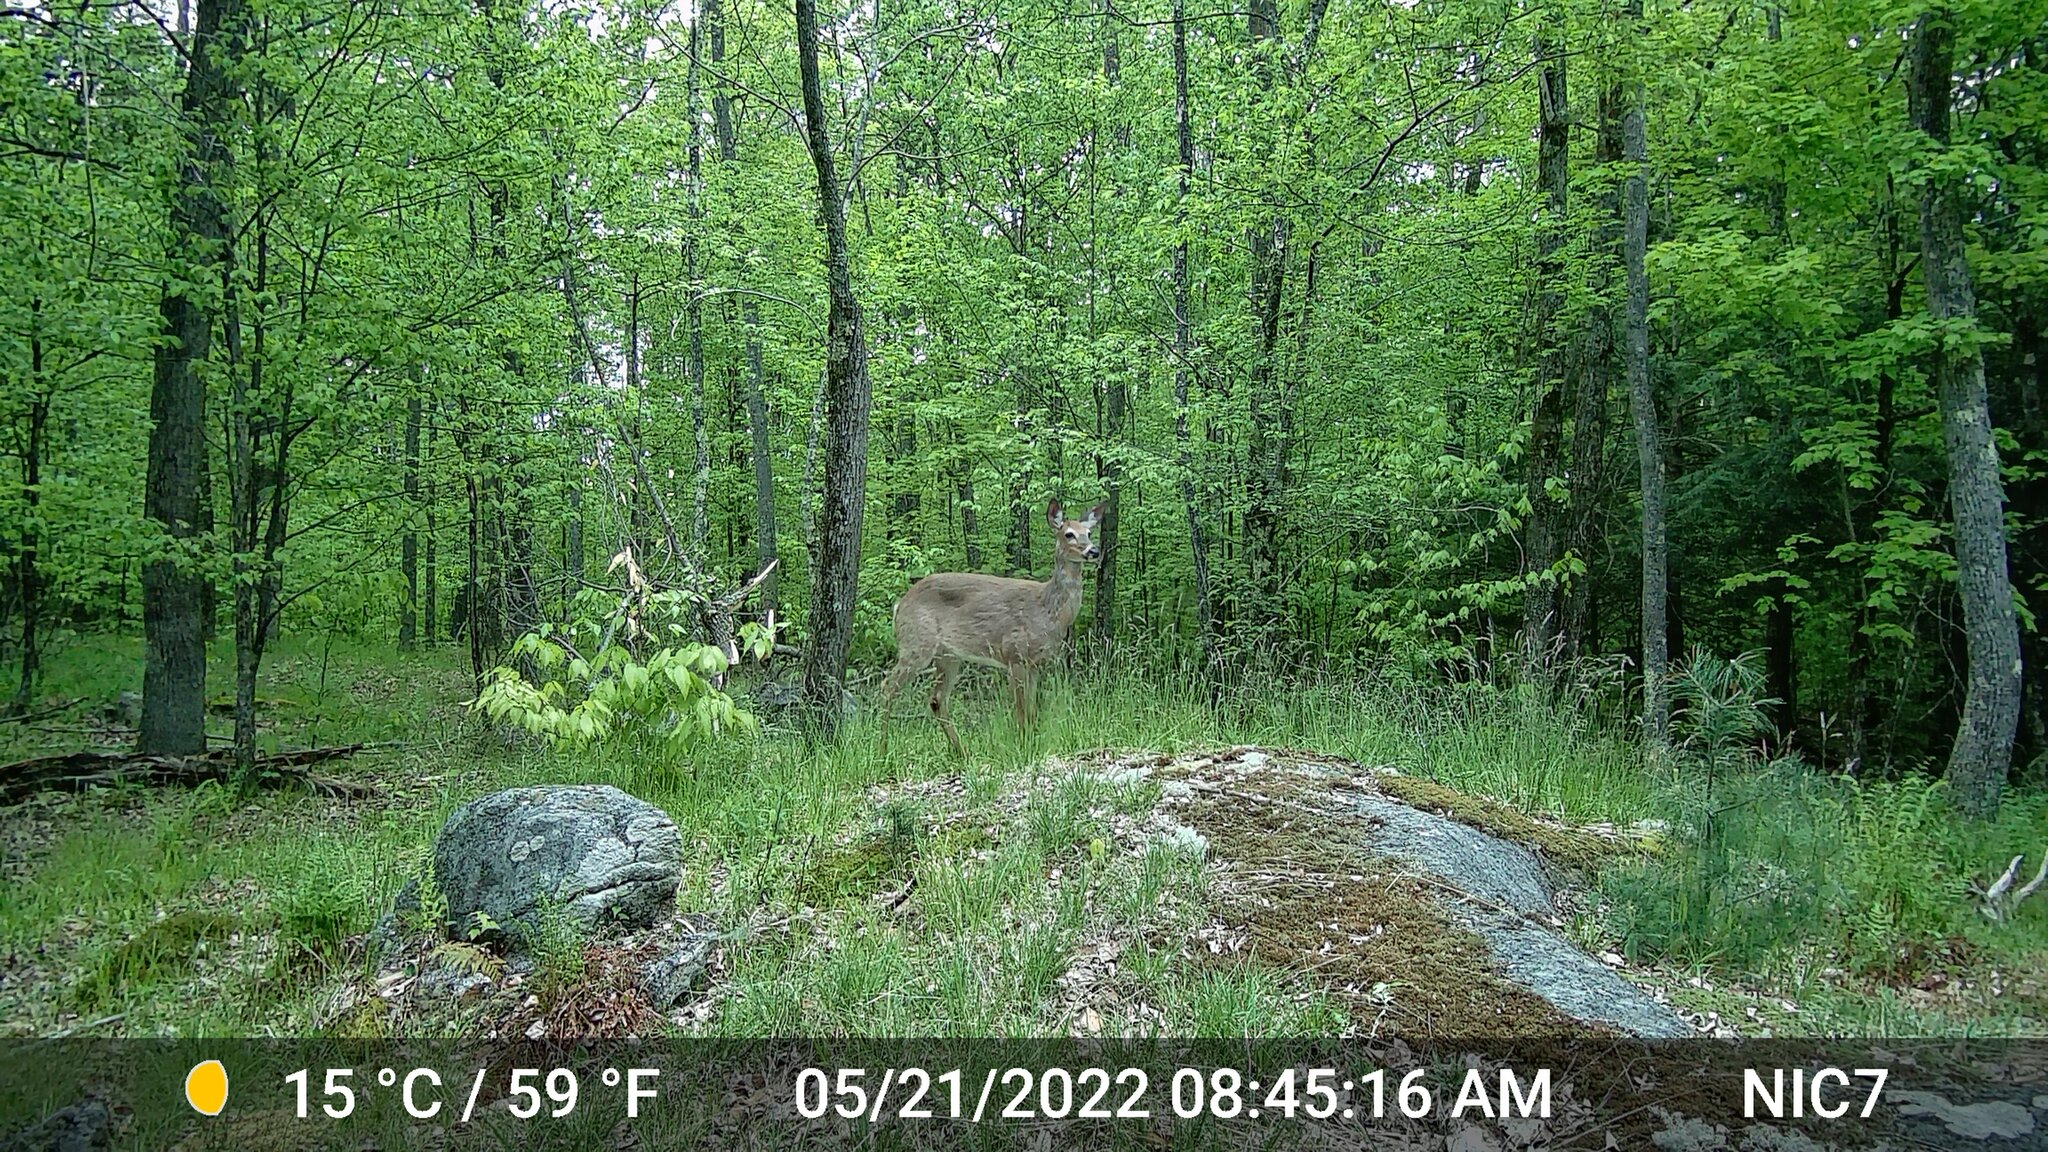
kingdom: Animalia
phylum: Chordata
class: Mammalia
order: Artiodactyla
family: Cervidae
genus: Odocoileus
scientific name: Odocoileus virginianus
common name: White-tailed deer
